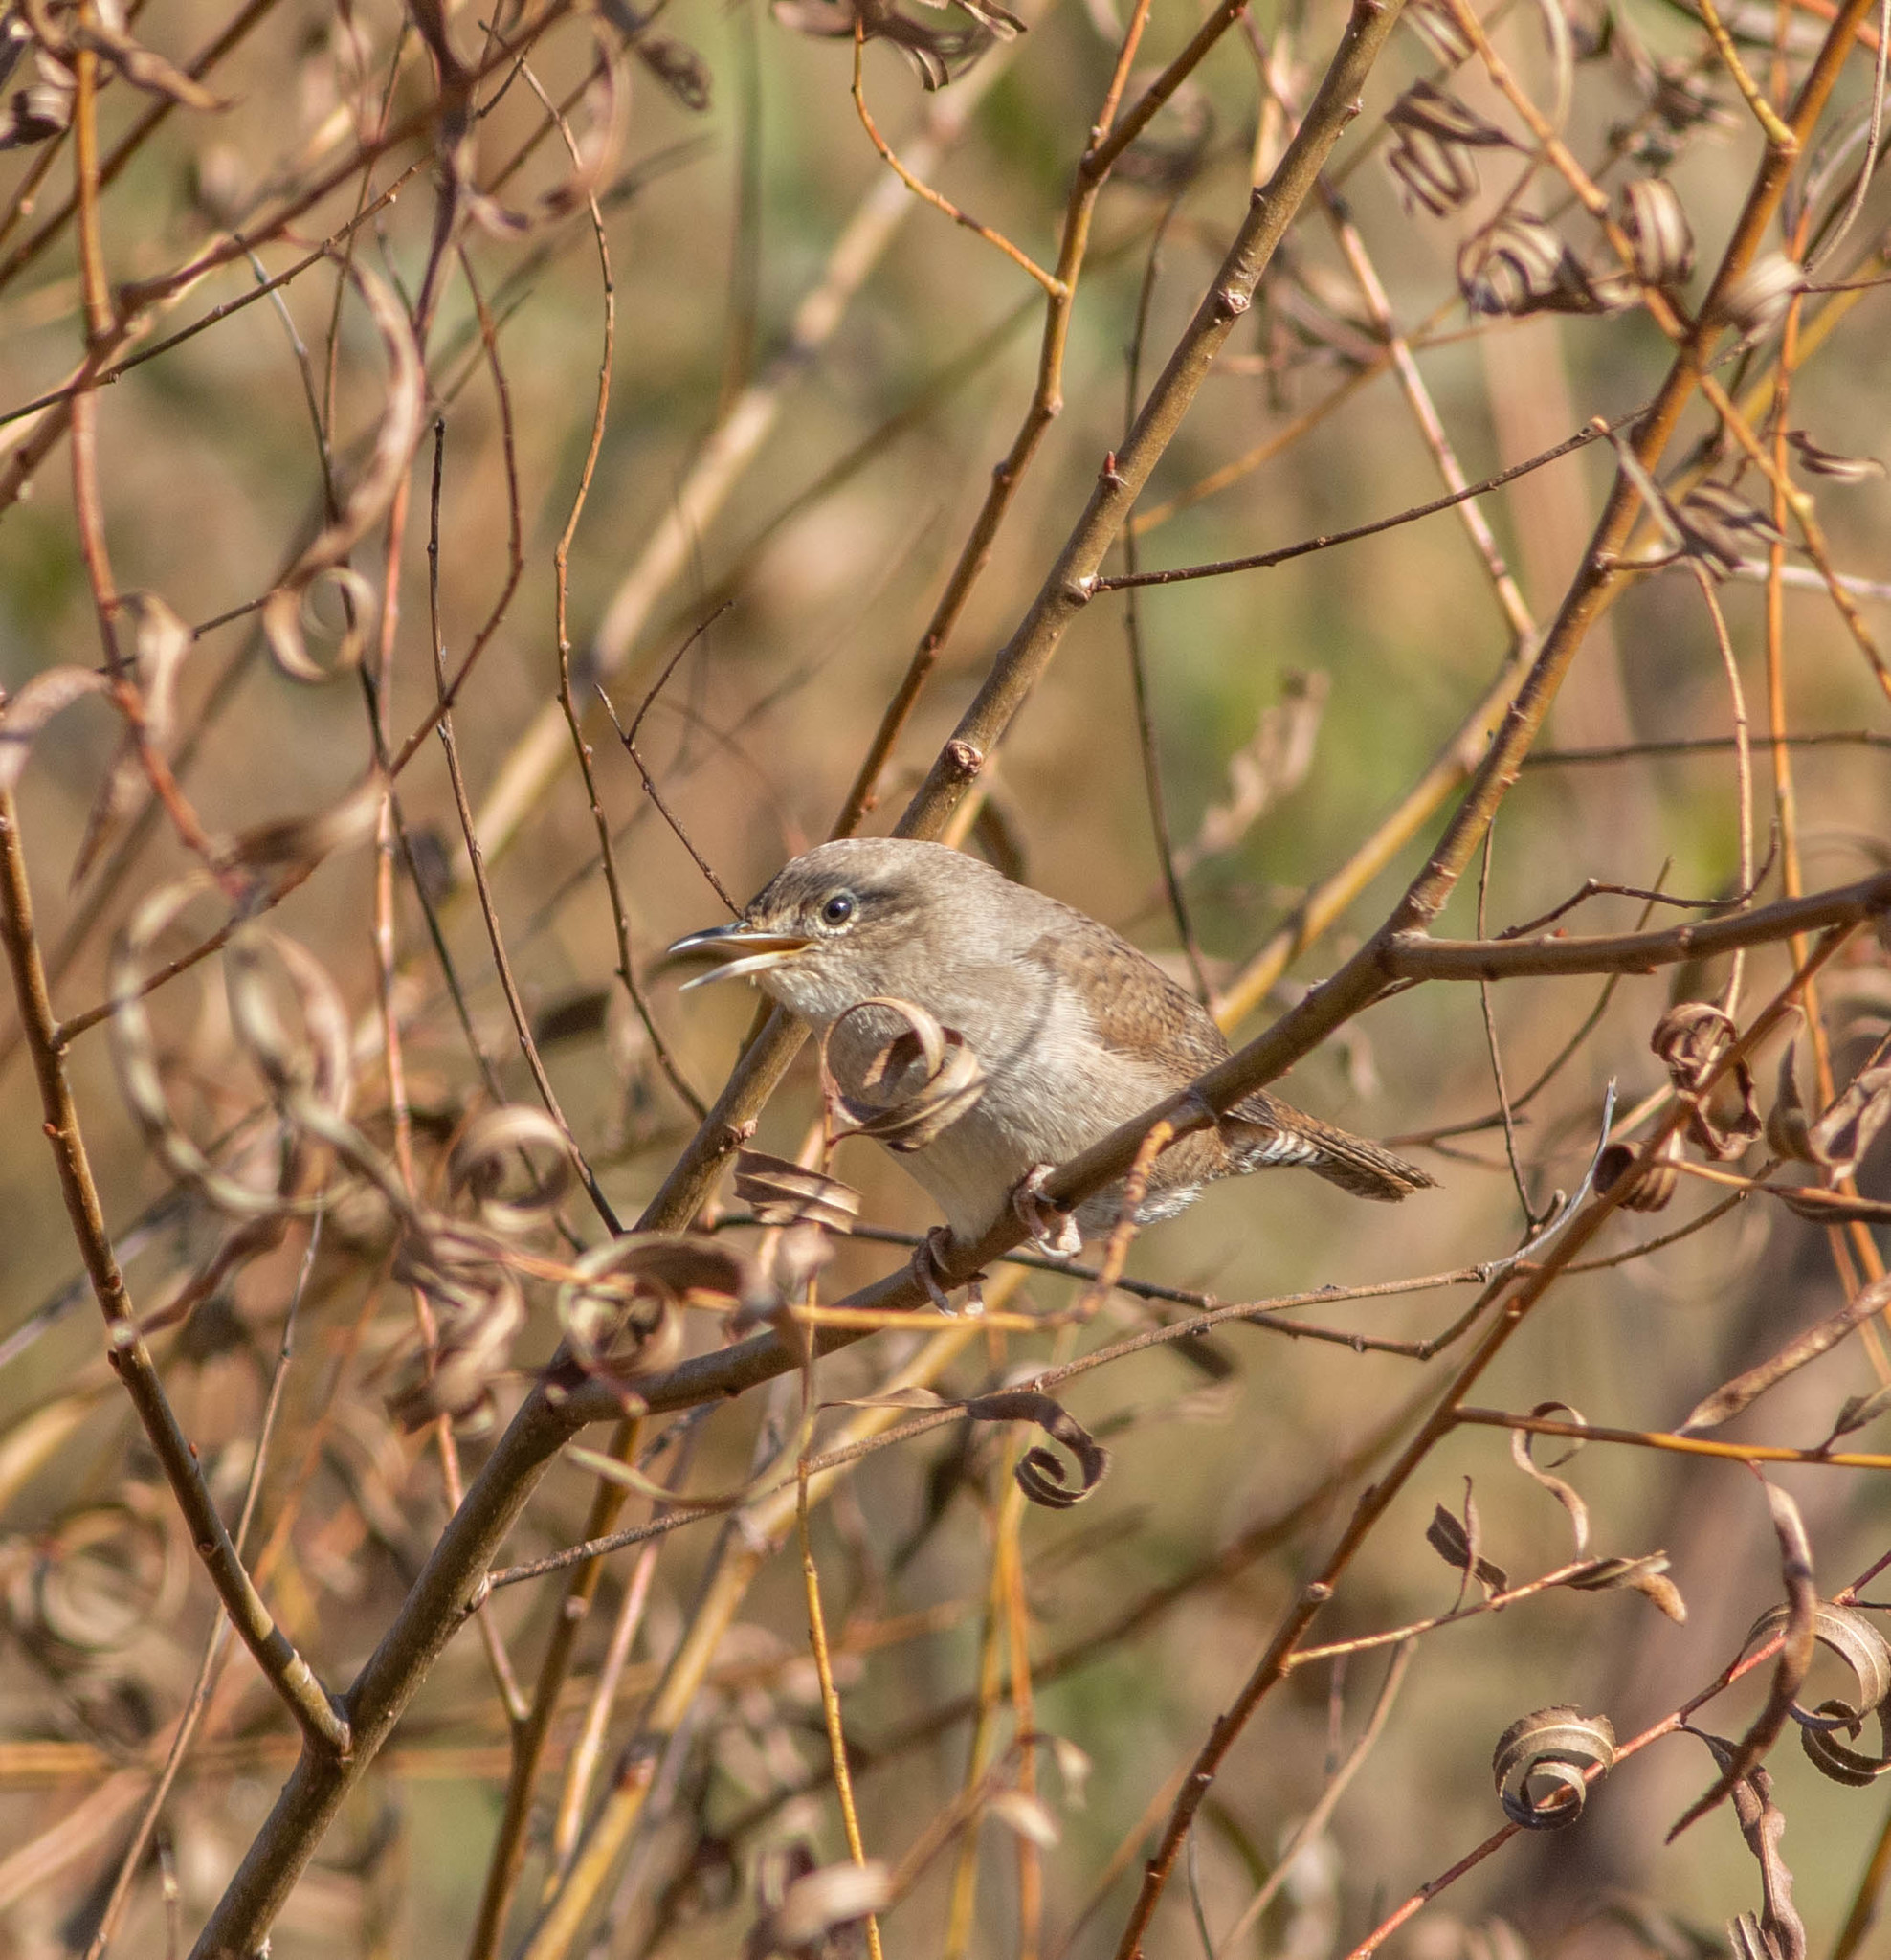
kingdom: Animalia
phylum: Chordata
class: Aves
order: Passeriformes
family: Troglodytidae
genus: Troglodytes
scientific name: Troglodytes aedon
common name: House wren
